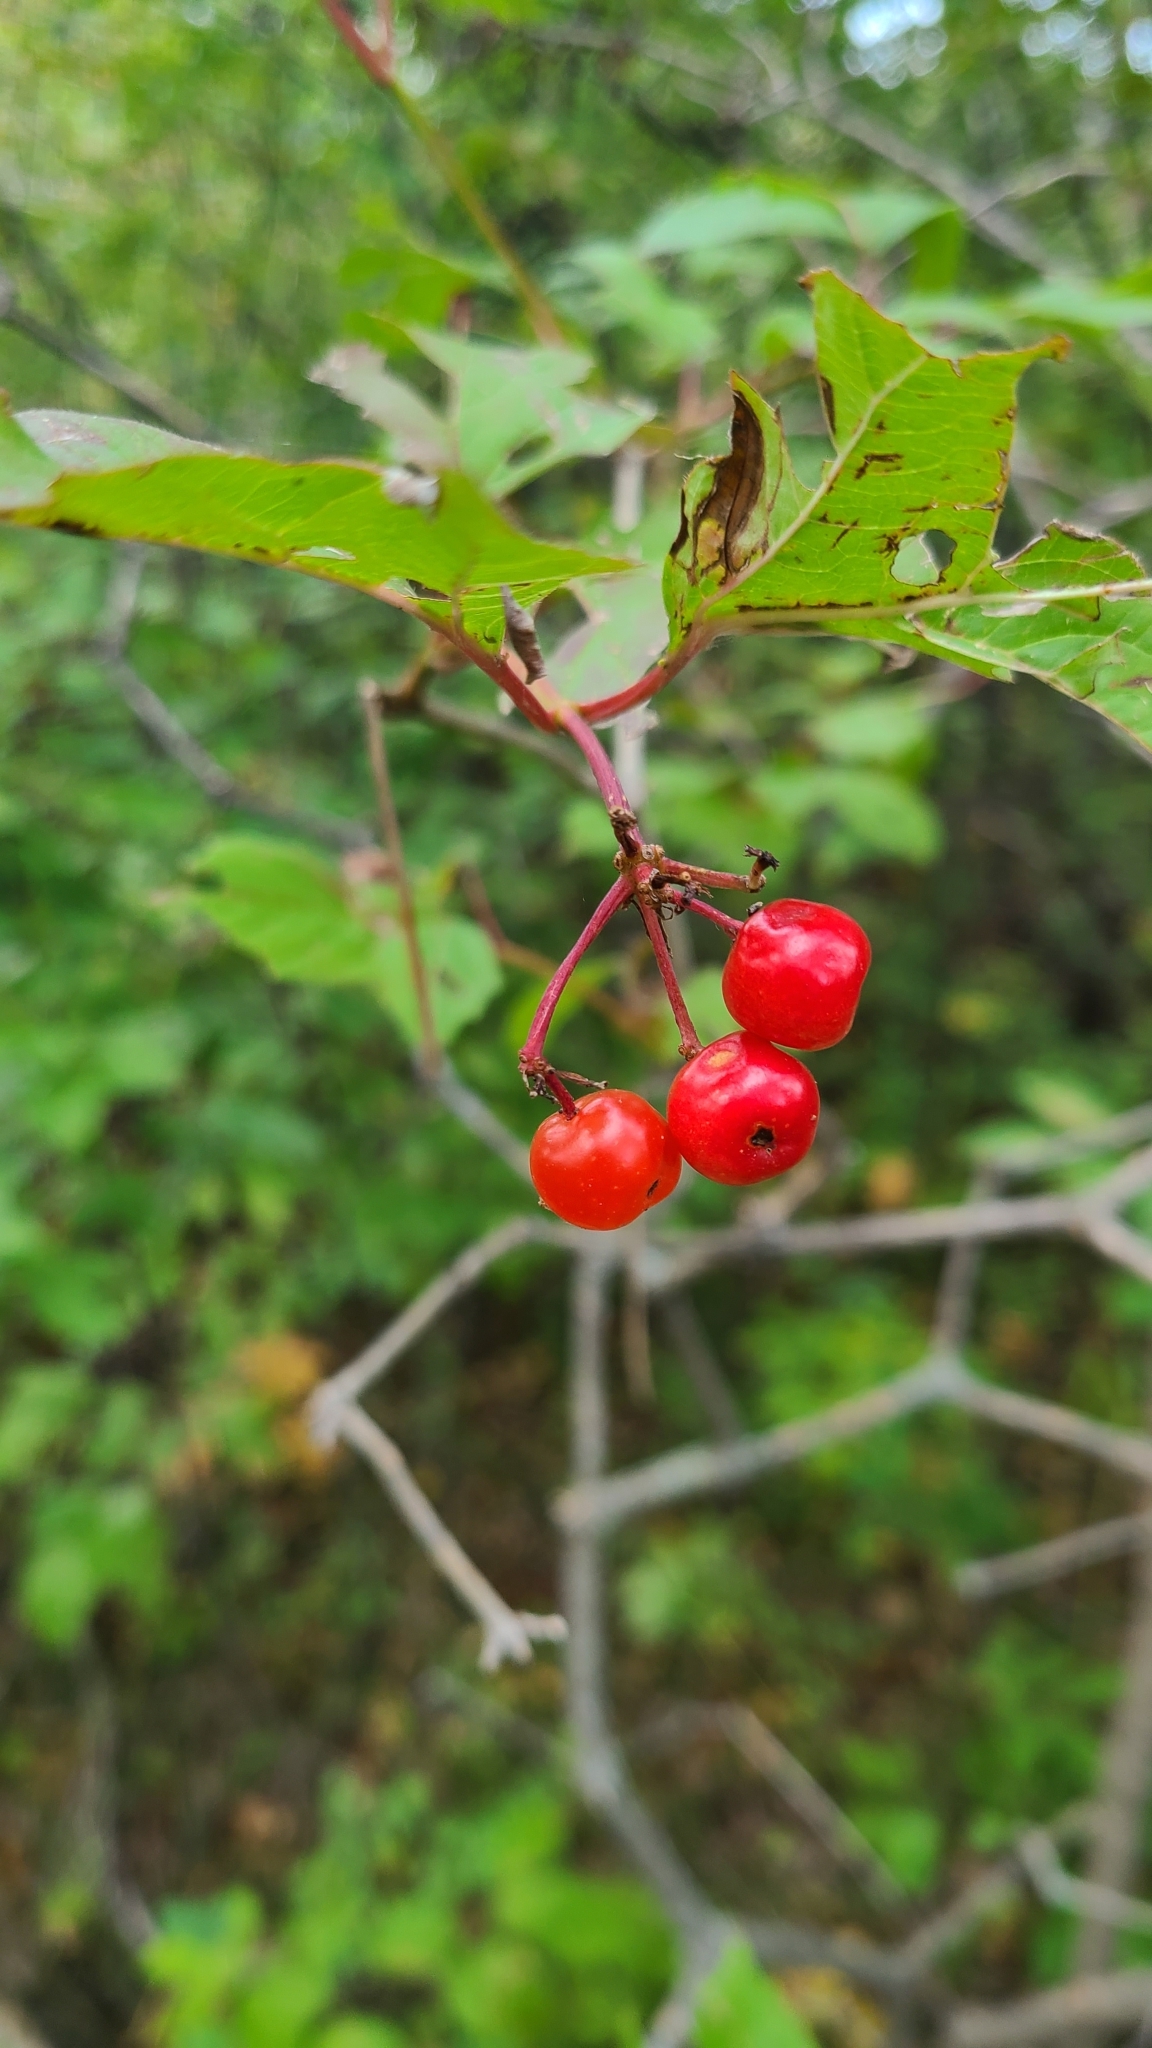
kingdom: Plantae
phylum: Tracheophyta
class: Magnoliopsida
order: Dipsacales
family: Viburnaceae
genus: Viburnum
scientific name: Viburnum opulus
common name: Guelder-rose
